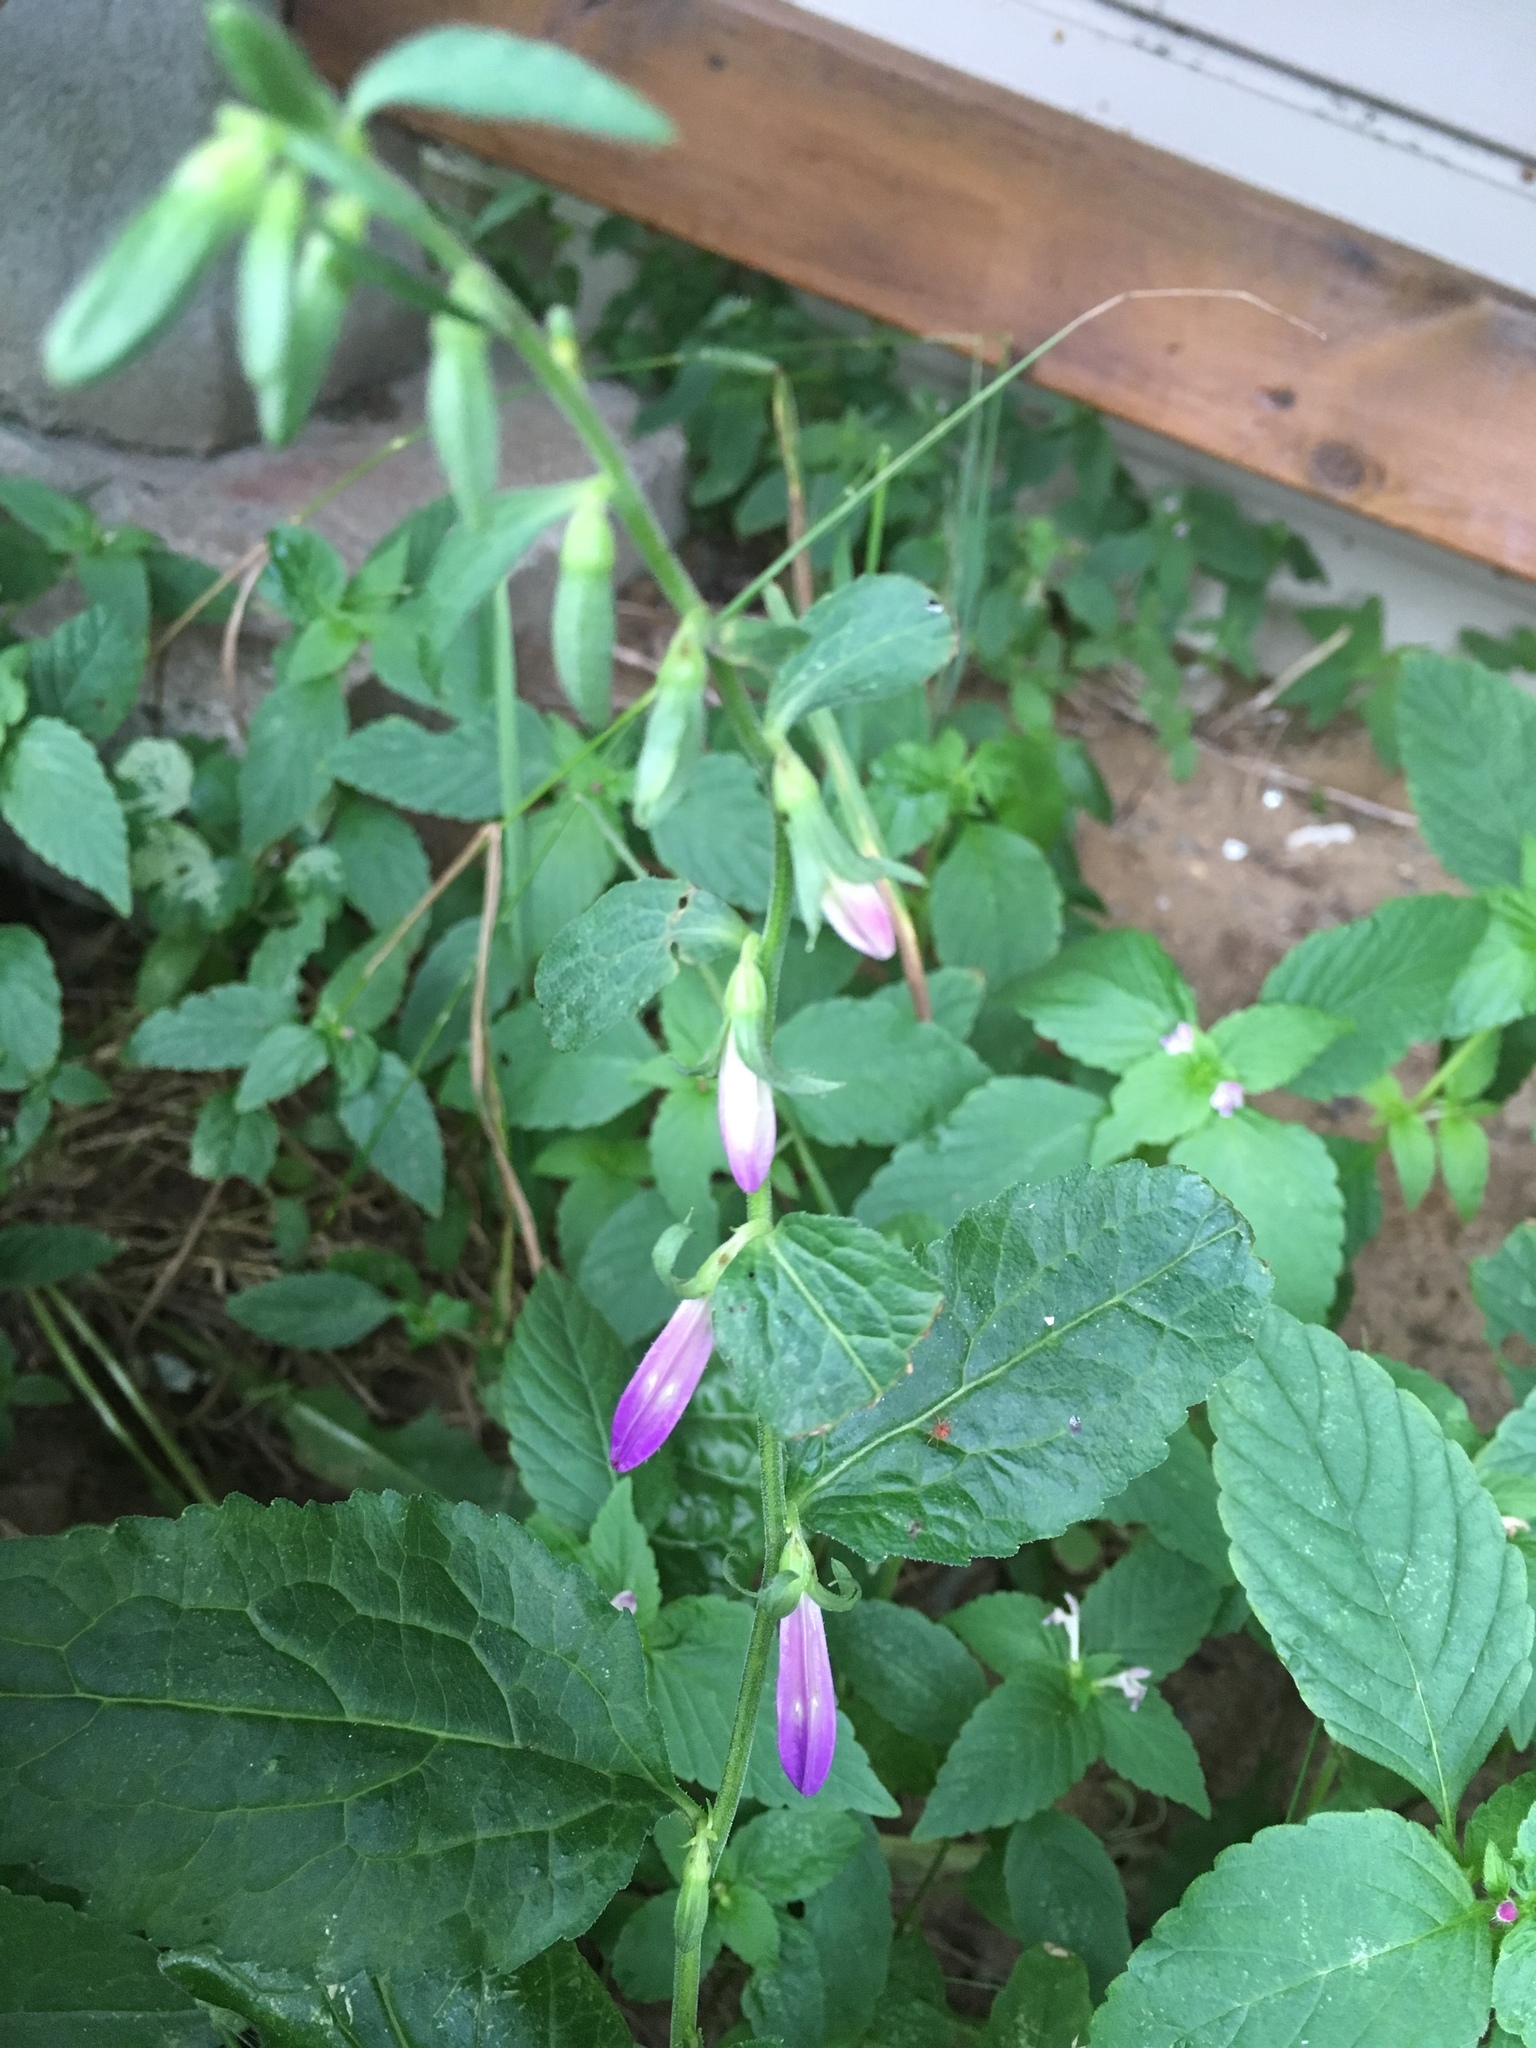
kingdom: Plantae
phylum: Tracheophyta
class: Magnoliopsida
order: Asterales
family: Campanulaceae
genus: Campanula
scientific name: Campanula rapunculoides
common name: Creeping bellflower
